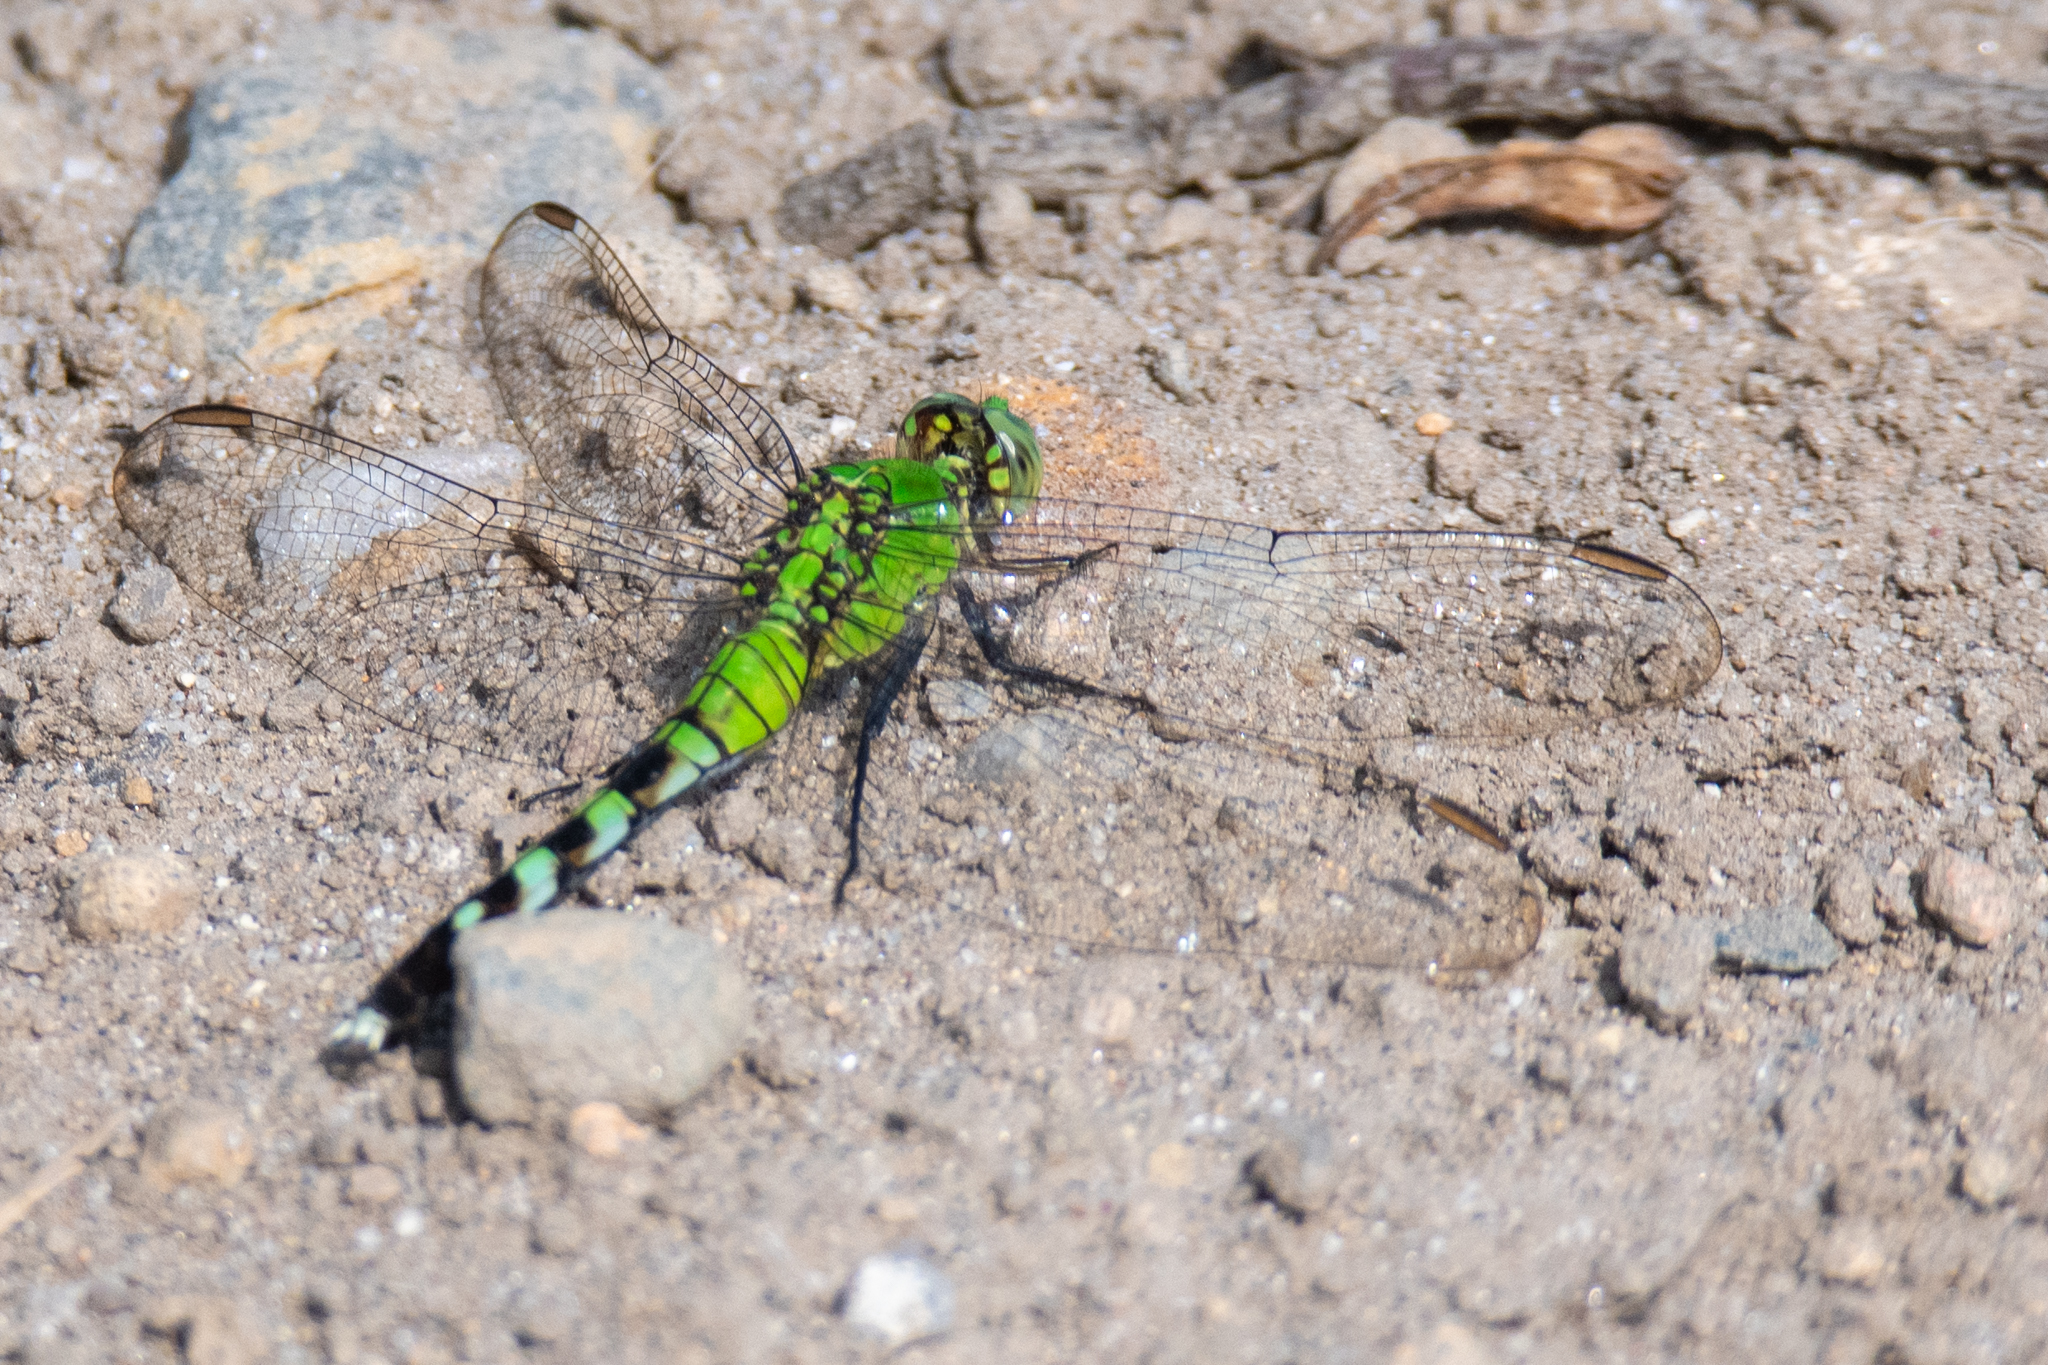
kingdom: Animalia
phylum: Arthropoda
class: Insecta
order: Odonata
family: Libellulidae
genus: Erythemis
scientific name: Erythemis simplicicollis
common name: Eastern pondhawk
